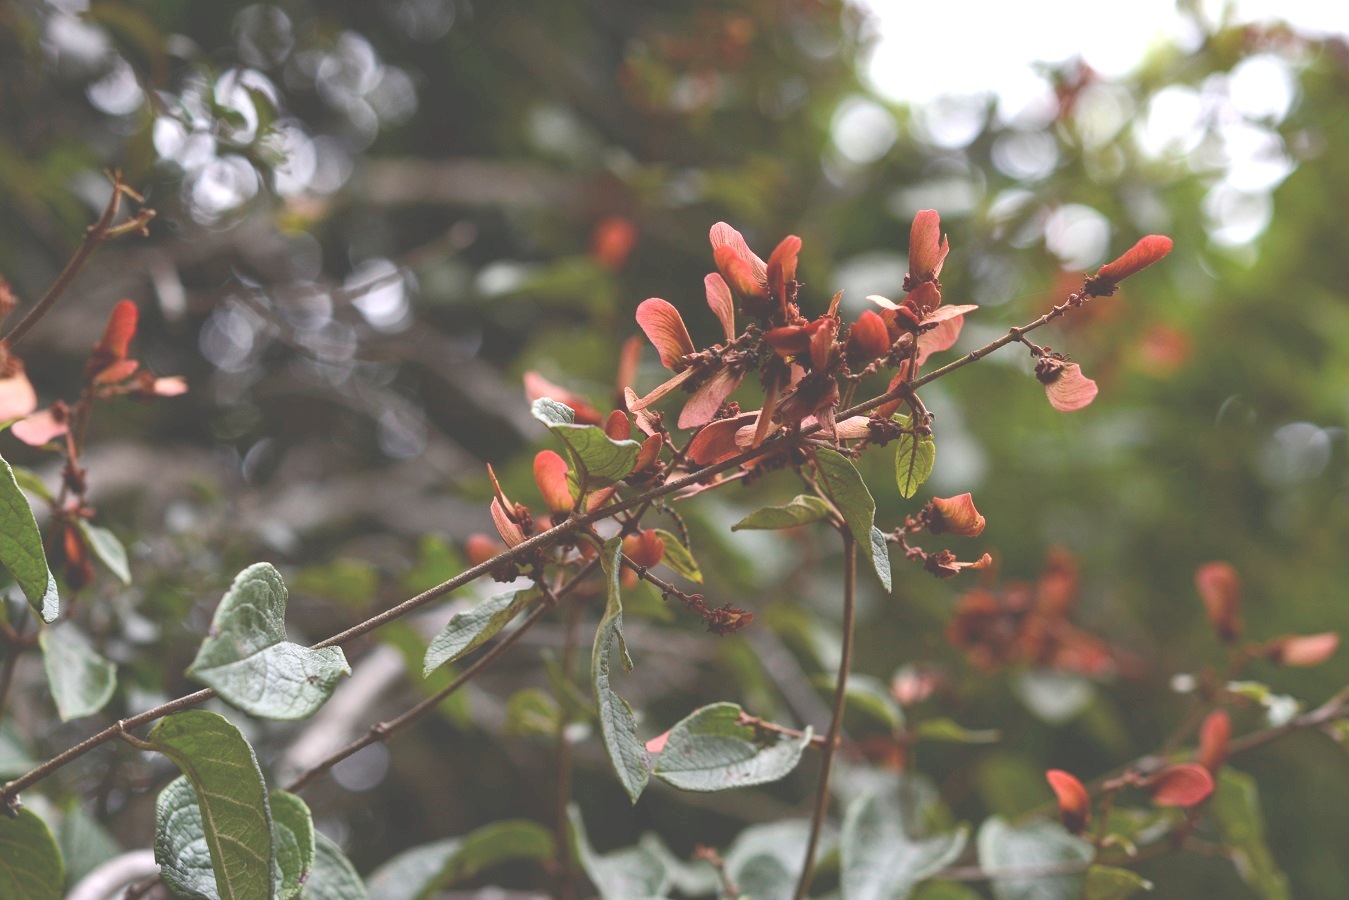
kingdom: Plantae
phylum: Tracheophyta
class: Magnoliopsida
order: Malpighiales
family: Malpighiaceae
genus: Heteropterys
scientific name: Heteropterys brachiata
